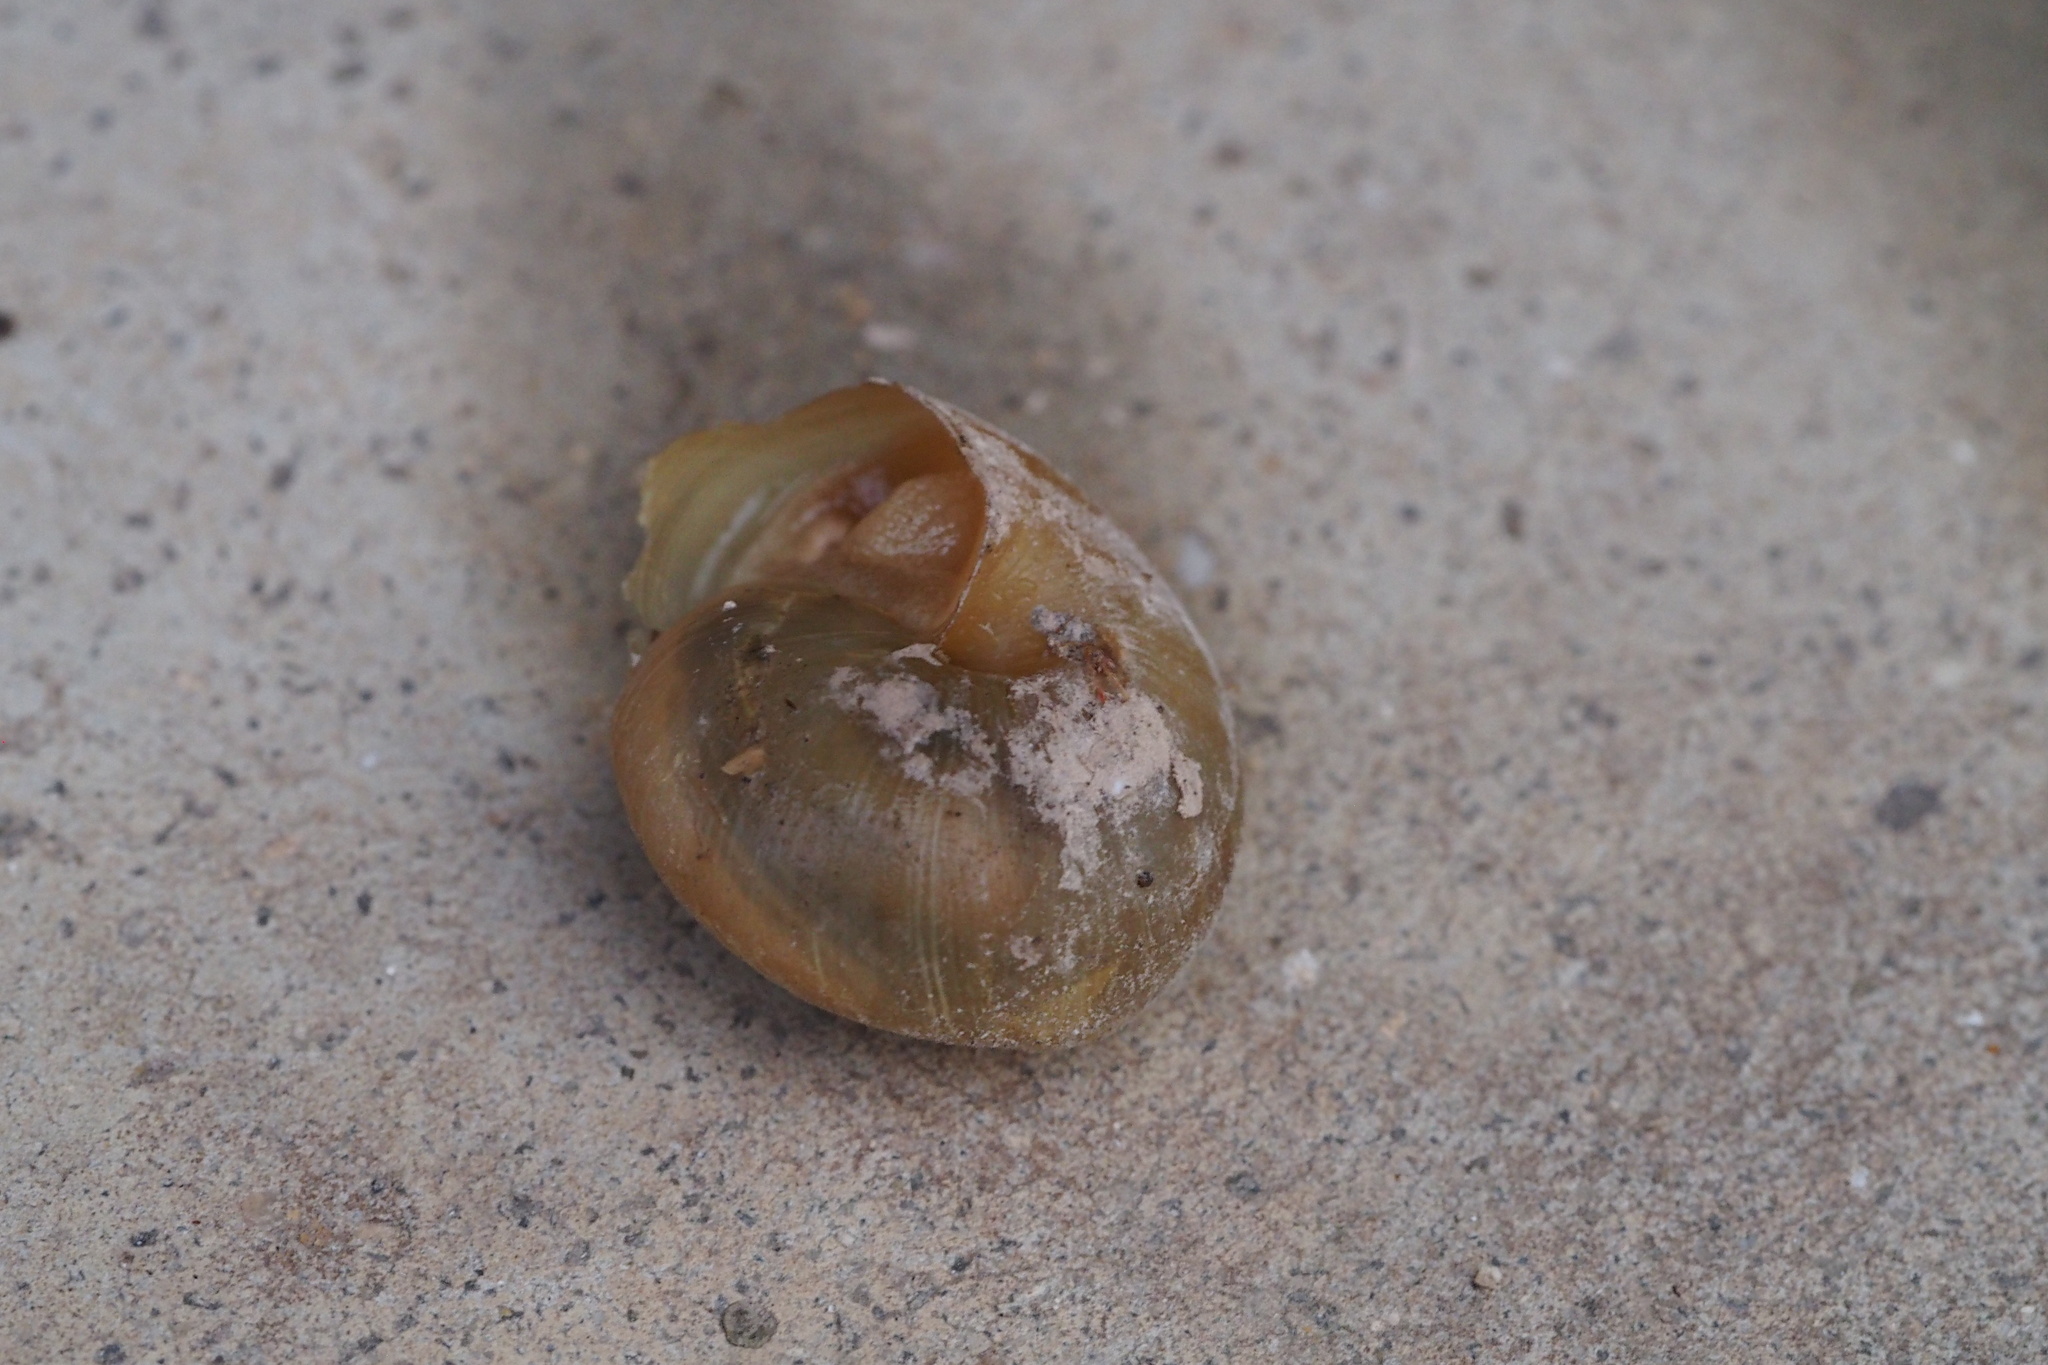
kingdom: Animalia
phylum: Mollusca
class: Gastropoda
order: Stylommatophora
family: Camaenidae
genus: Euhadra
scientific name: Euhadra subnimbosa
